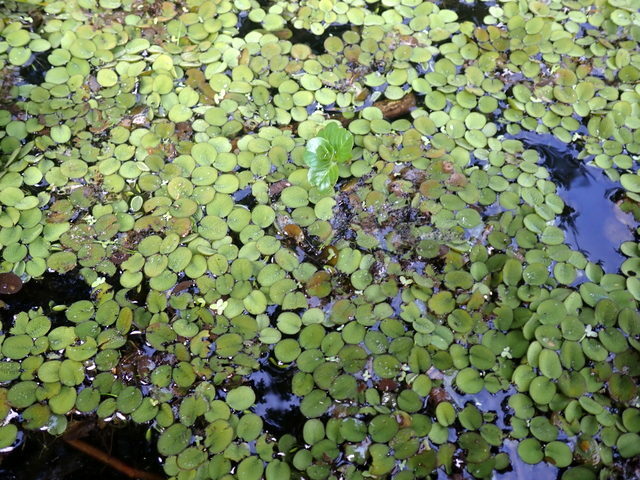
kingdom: Plantae
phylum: Tracheophyta
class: Polypodiopsida
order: Salviniales
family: Salviniaceae
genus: Salvinia
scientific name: Salvinia minima
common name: Water spangles
